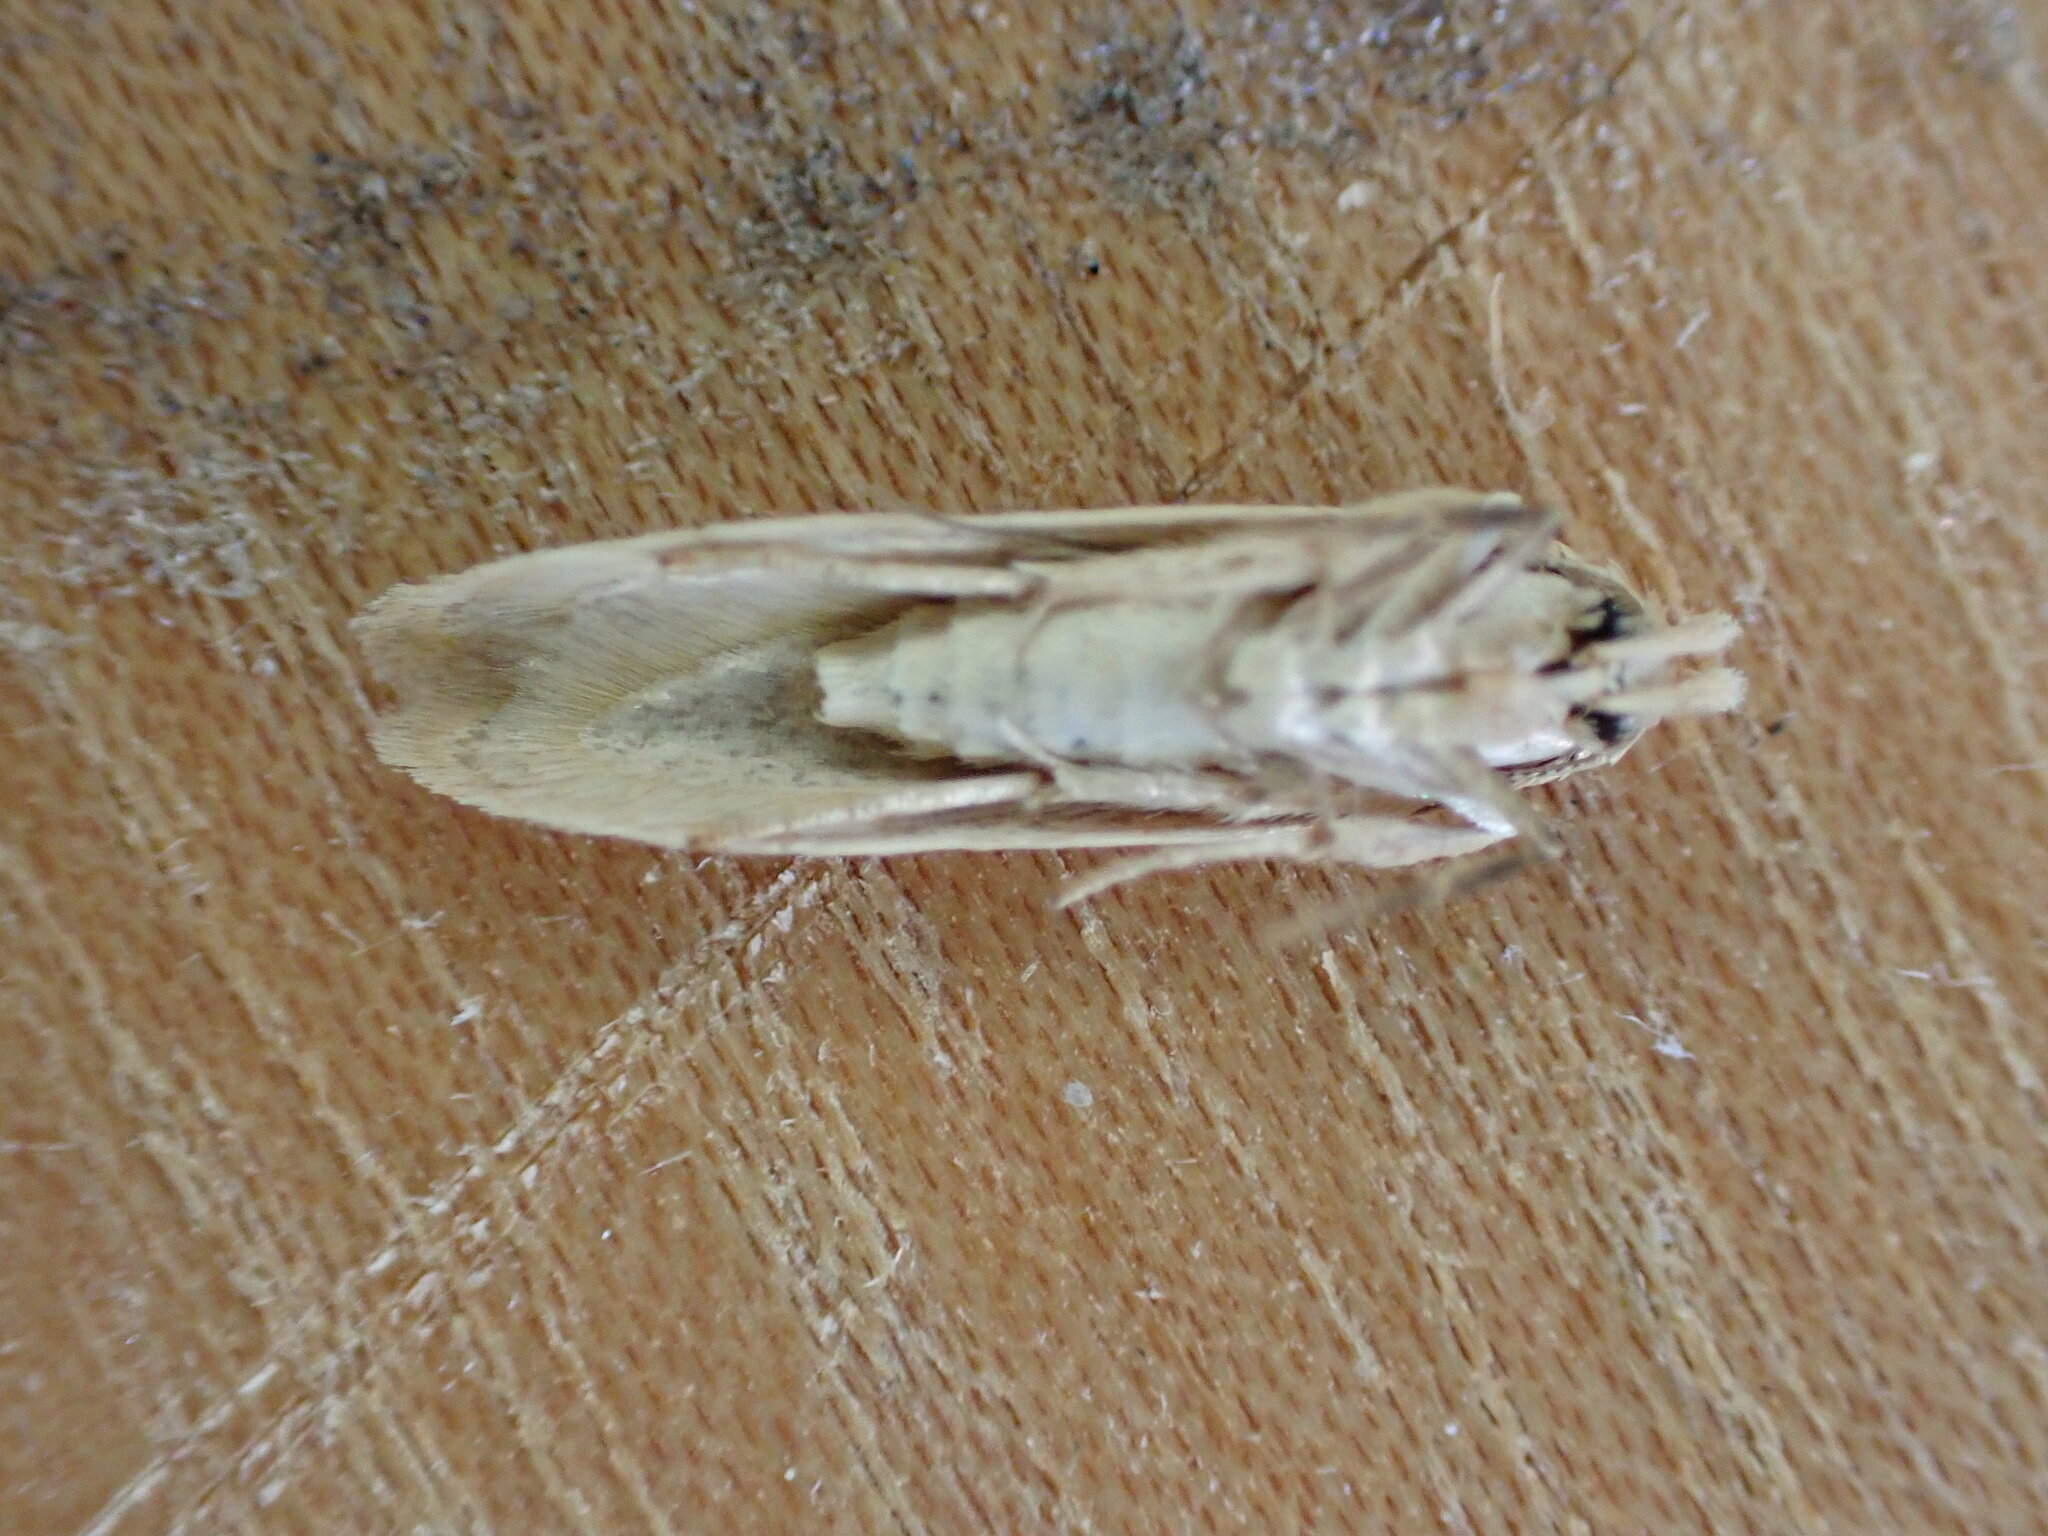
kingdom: Animalia
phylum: Arthropoda
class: Insecta
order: Lepidoptera
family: Blastobasidae
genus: Blastobasis
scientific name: Blastobasis lacticolella
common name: London dowd
